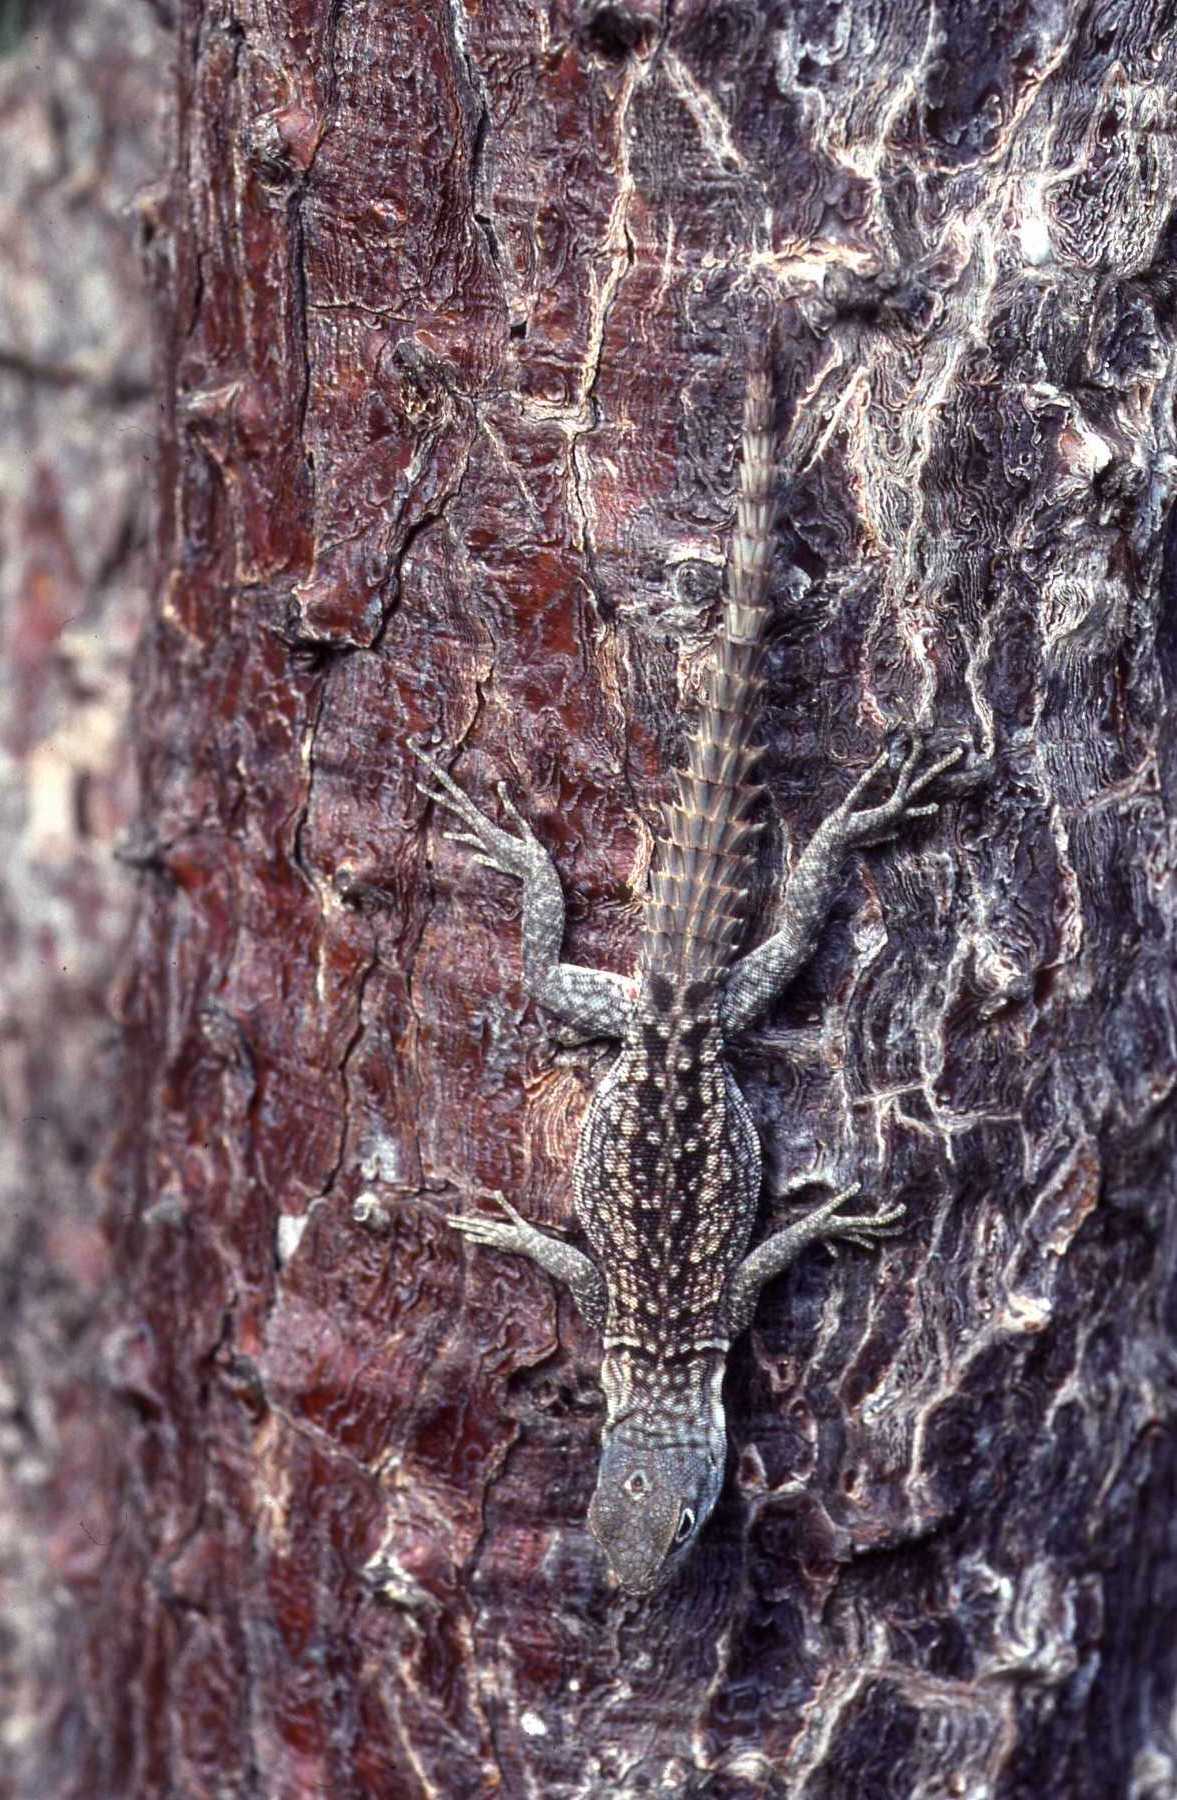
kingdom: Animalia
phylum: Chordata
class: Squamata
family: Opluridae
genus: Oplurus
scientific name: Oplurus cyclurus
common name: Merrem's madagascar swift
